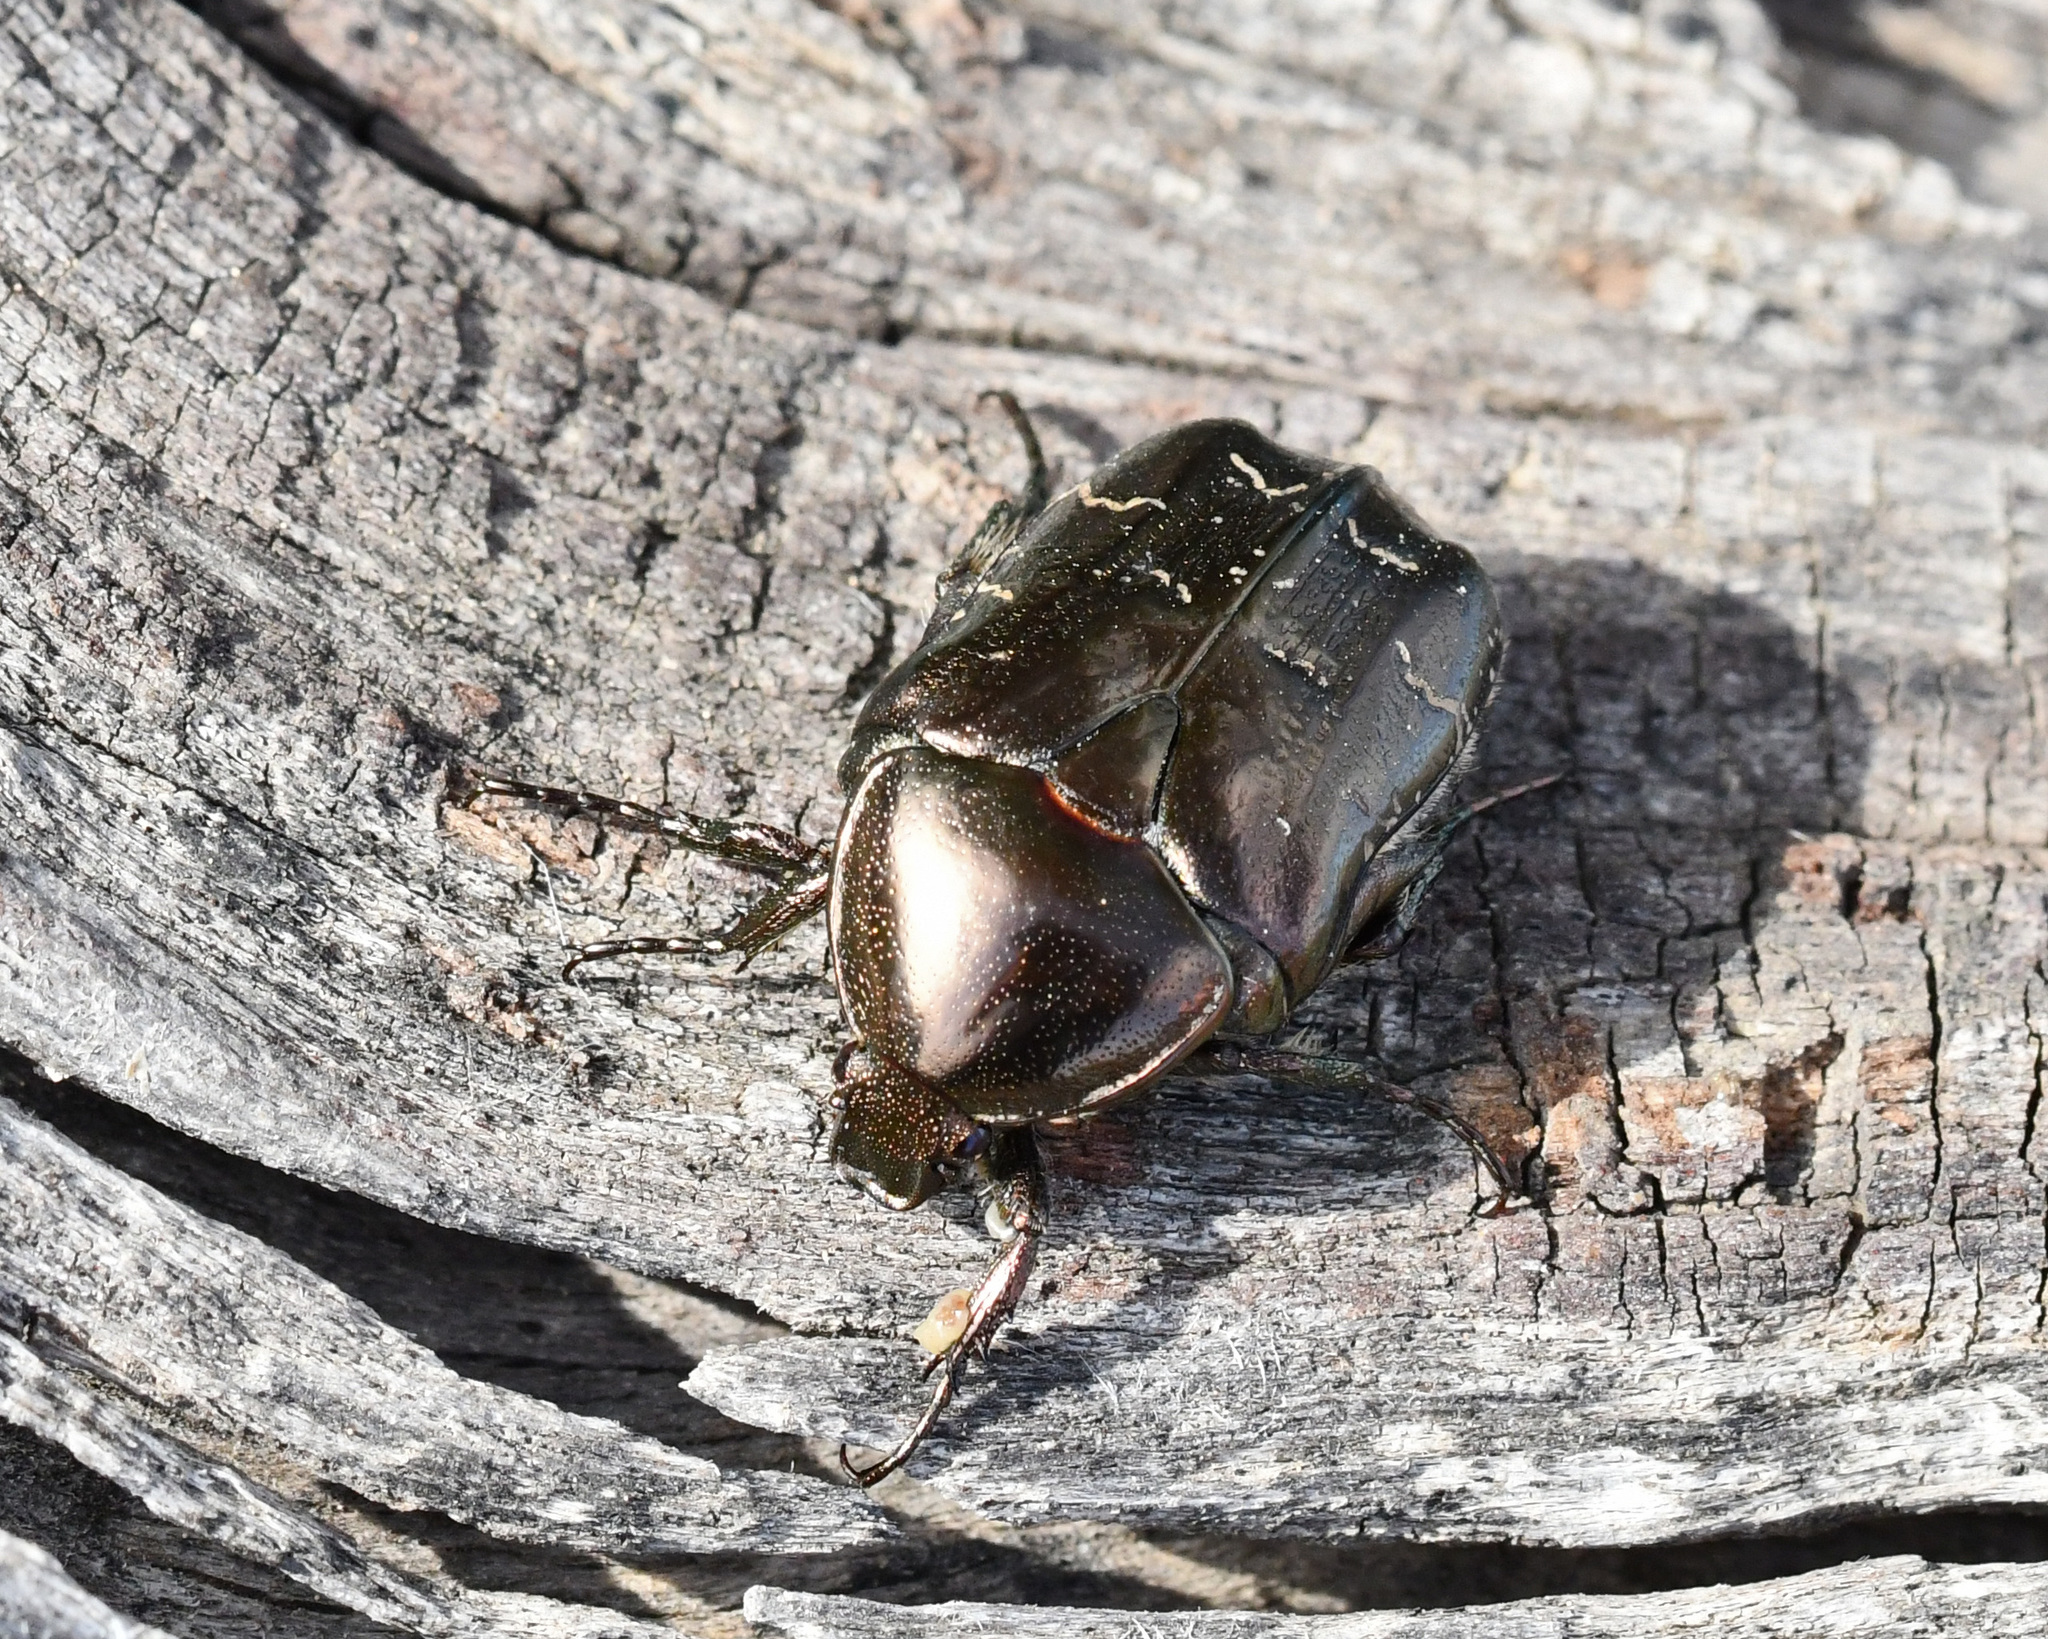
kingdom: Animalia
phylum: Arthropoda
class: Insecta
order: Coleoptera
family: Scarabaeidae
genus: Protaetia
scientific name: Protaetia ikonomovi
